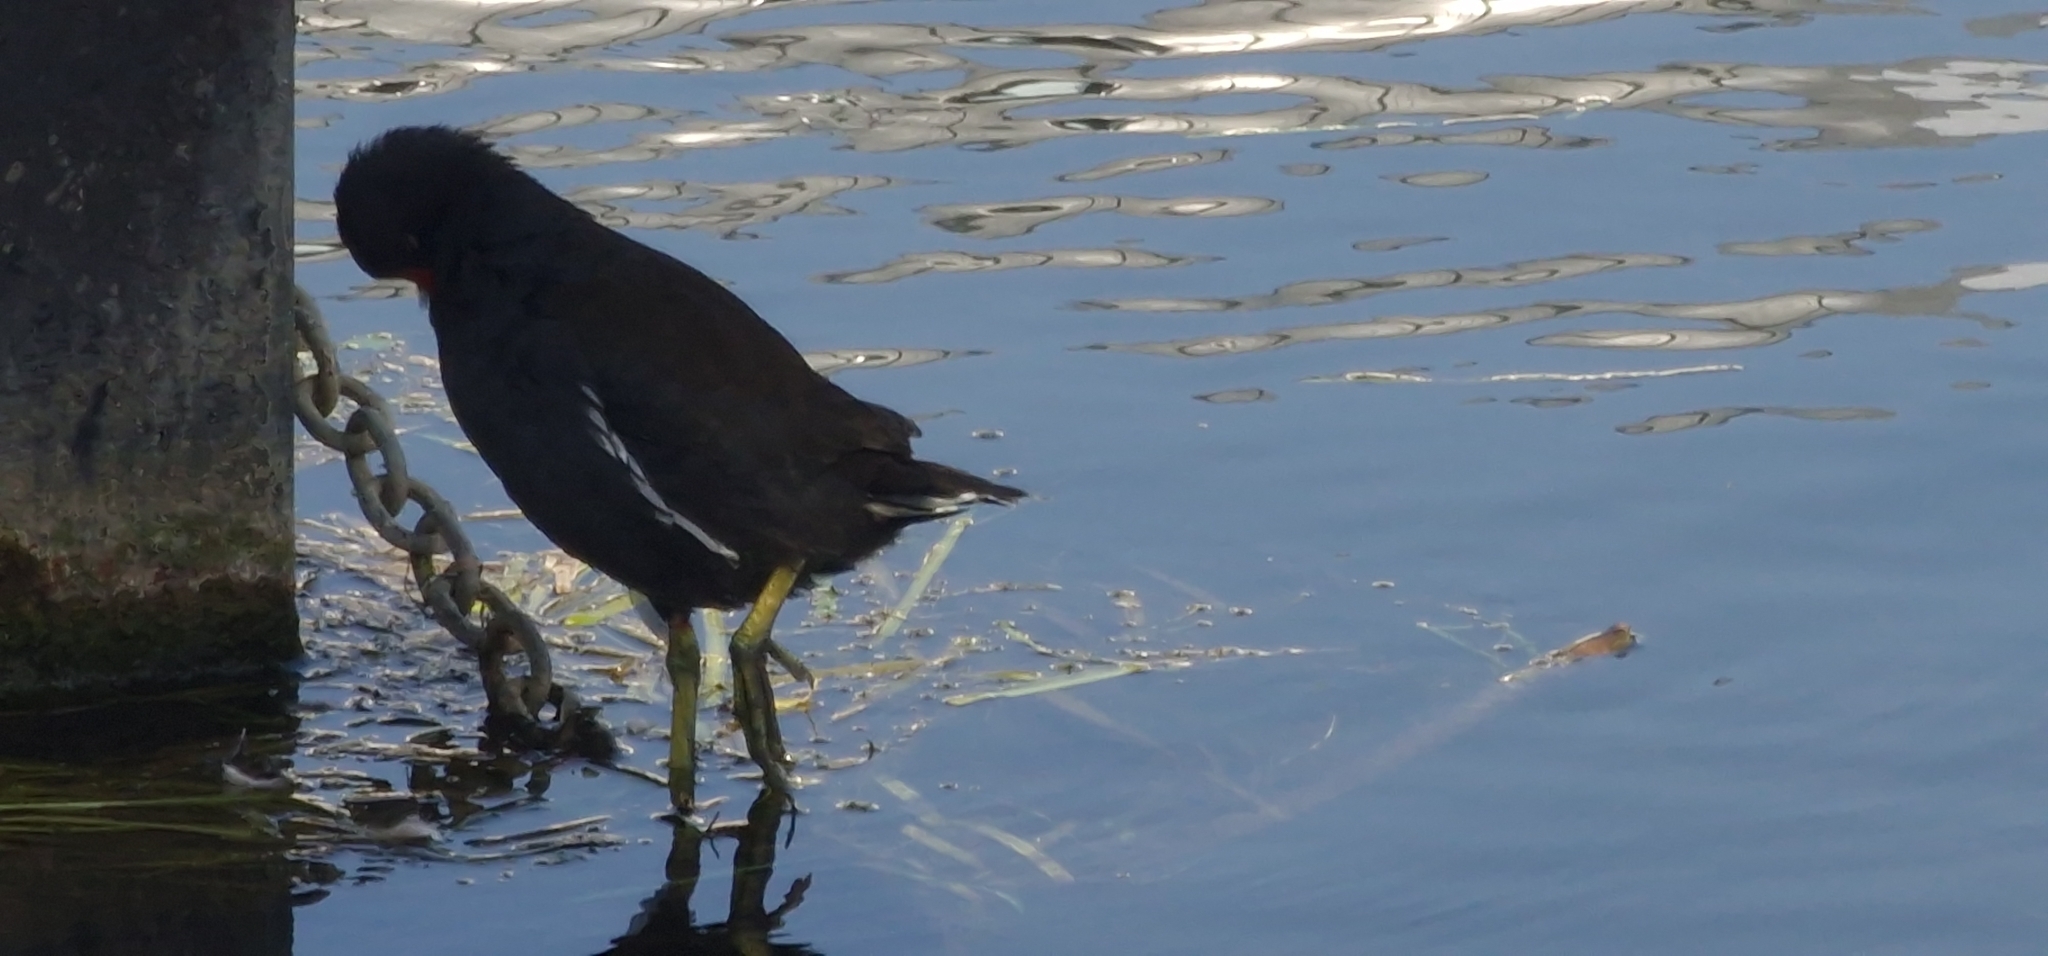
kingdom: Animalia
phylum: Chordata
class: Aves
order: Gruiformes
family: Rallidae
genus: Gallinula
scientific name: Gallinula chloropus
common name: Common moorhen
